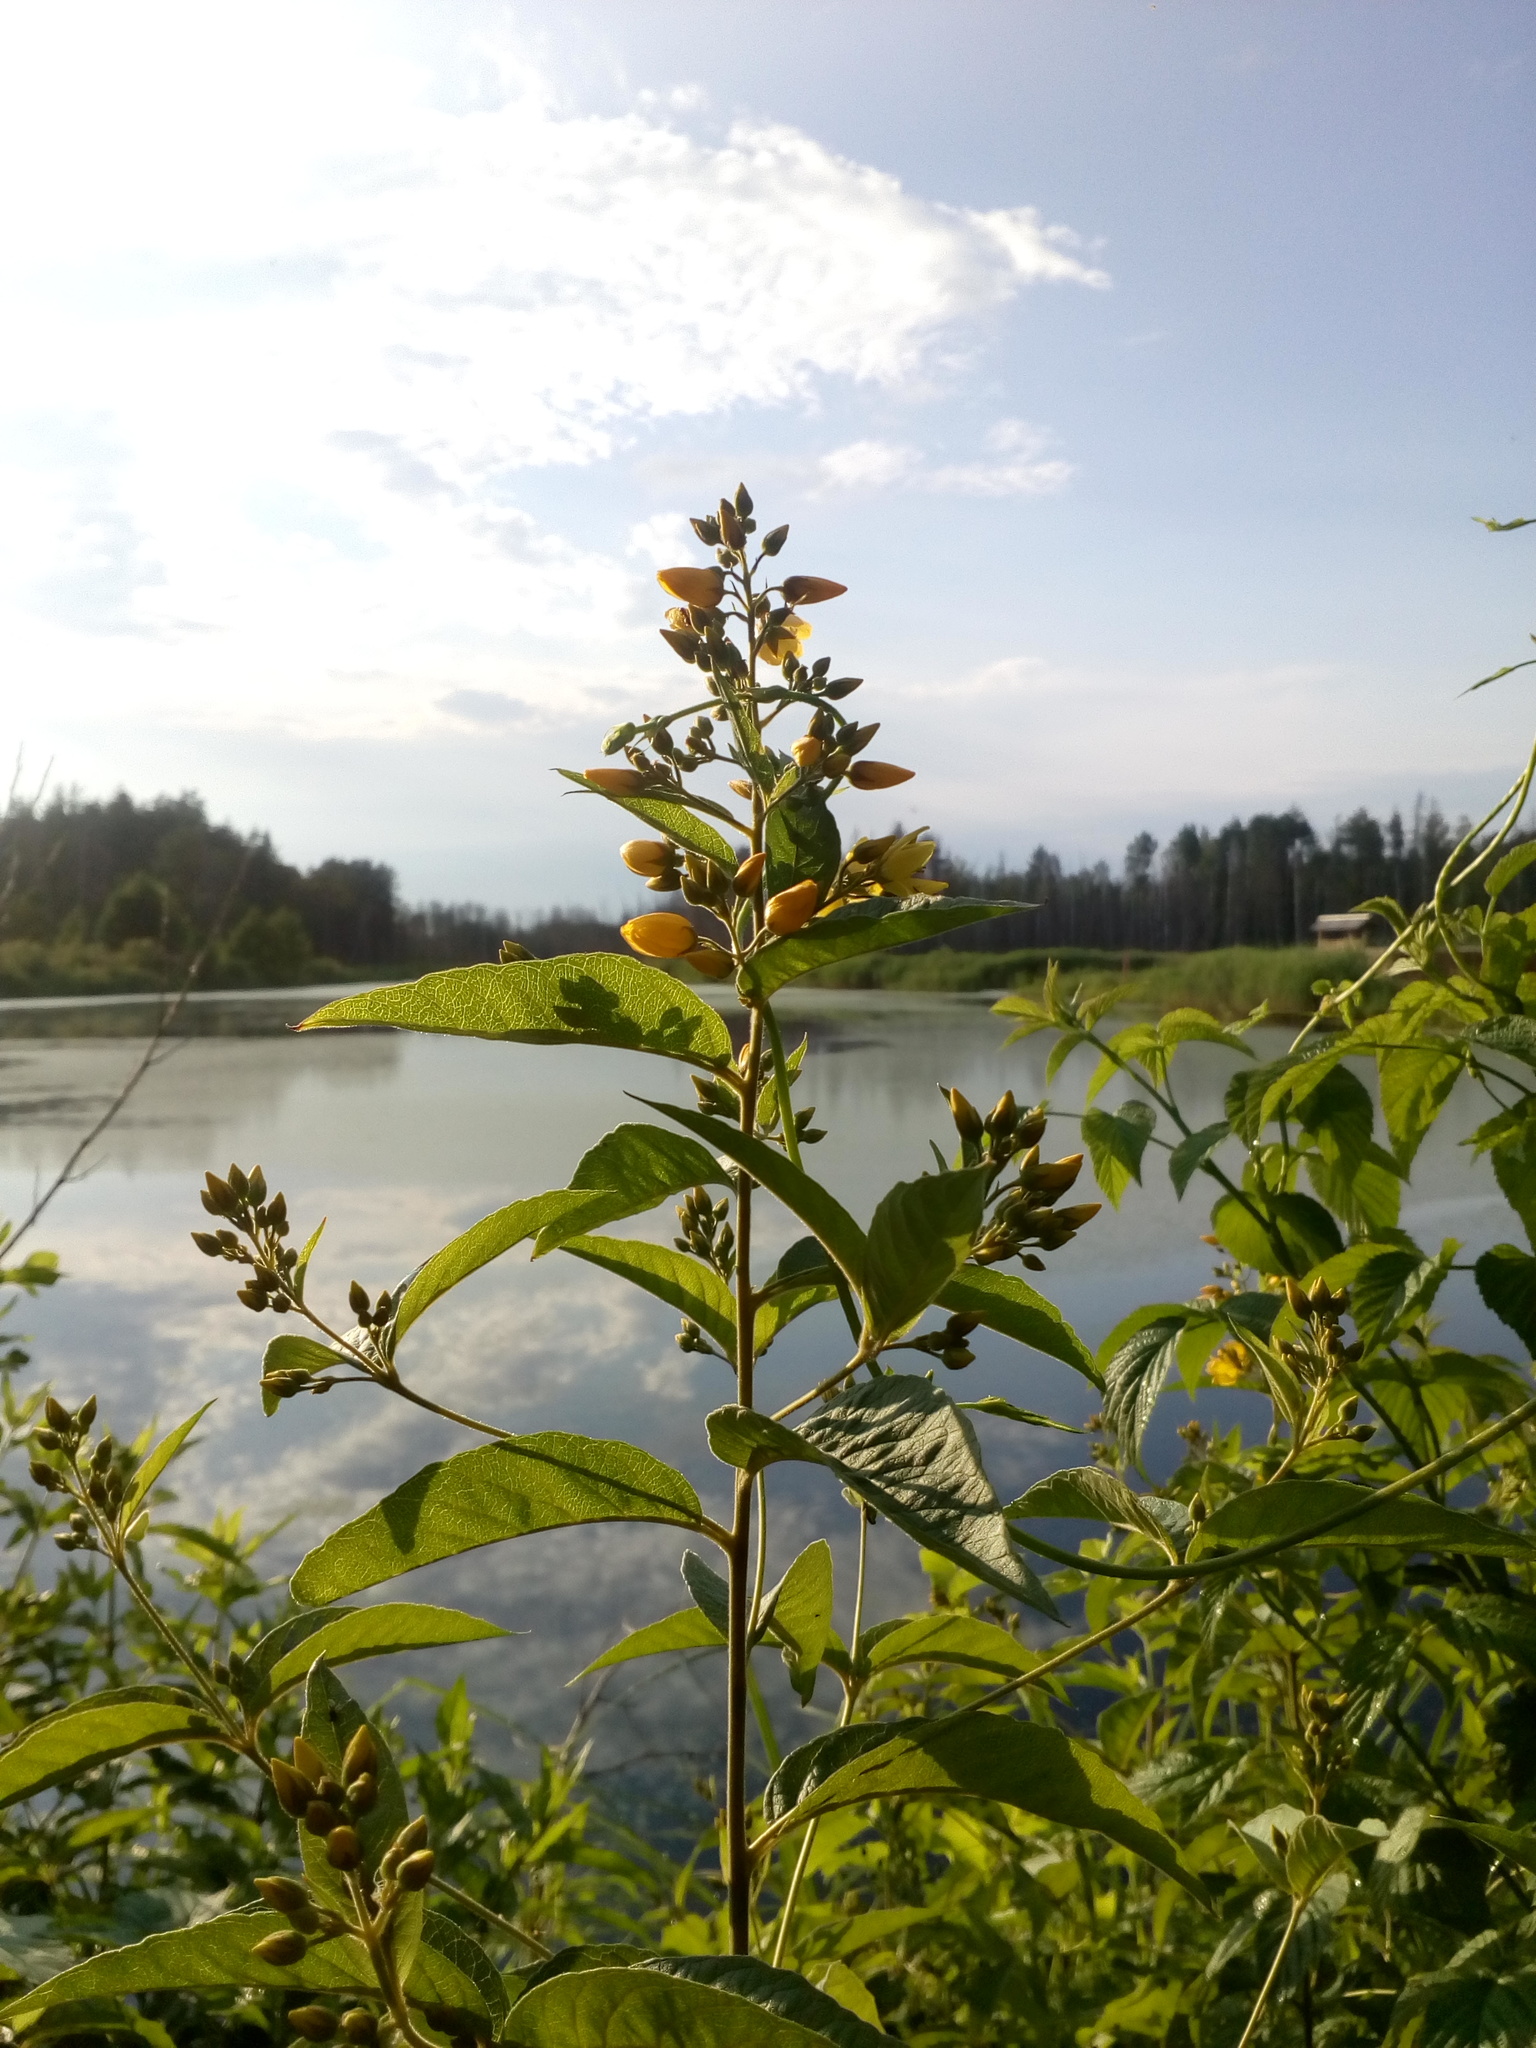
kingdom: Plantae
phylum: Tracheophyta
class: Magnoliopsida
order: Ericales
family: Primulaceae
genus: Lysimachia
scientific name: Lysimachia vulgaris
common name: Yellow loosestrife
